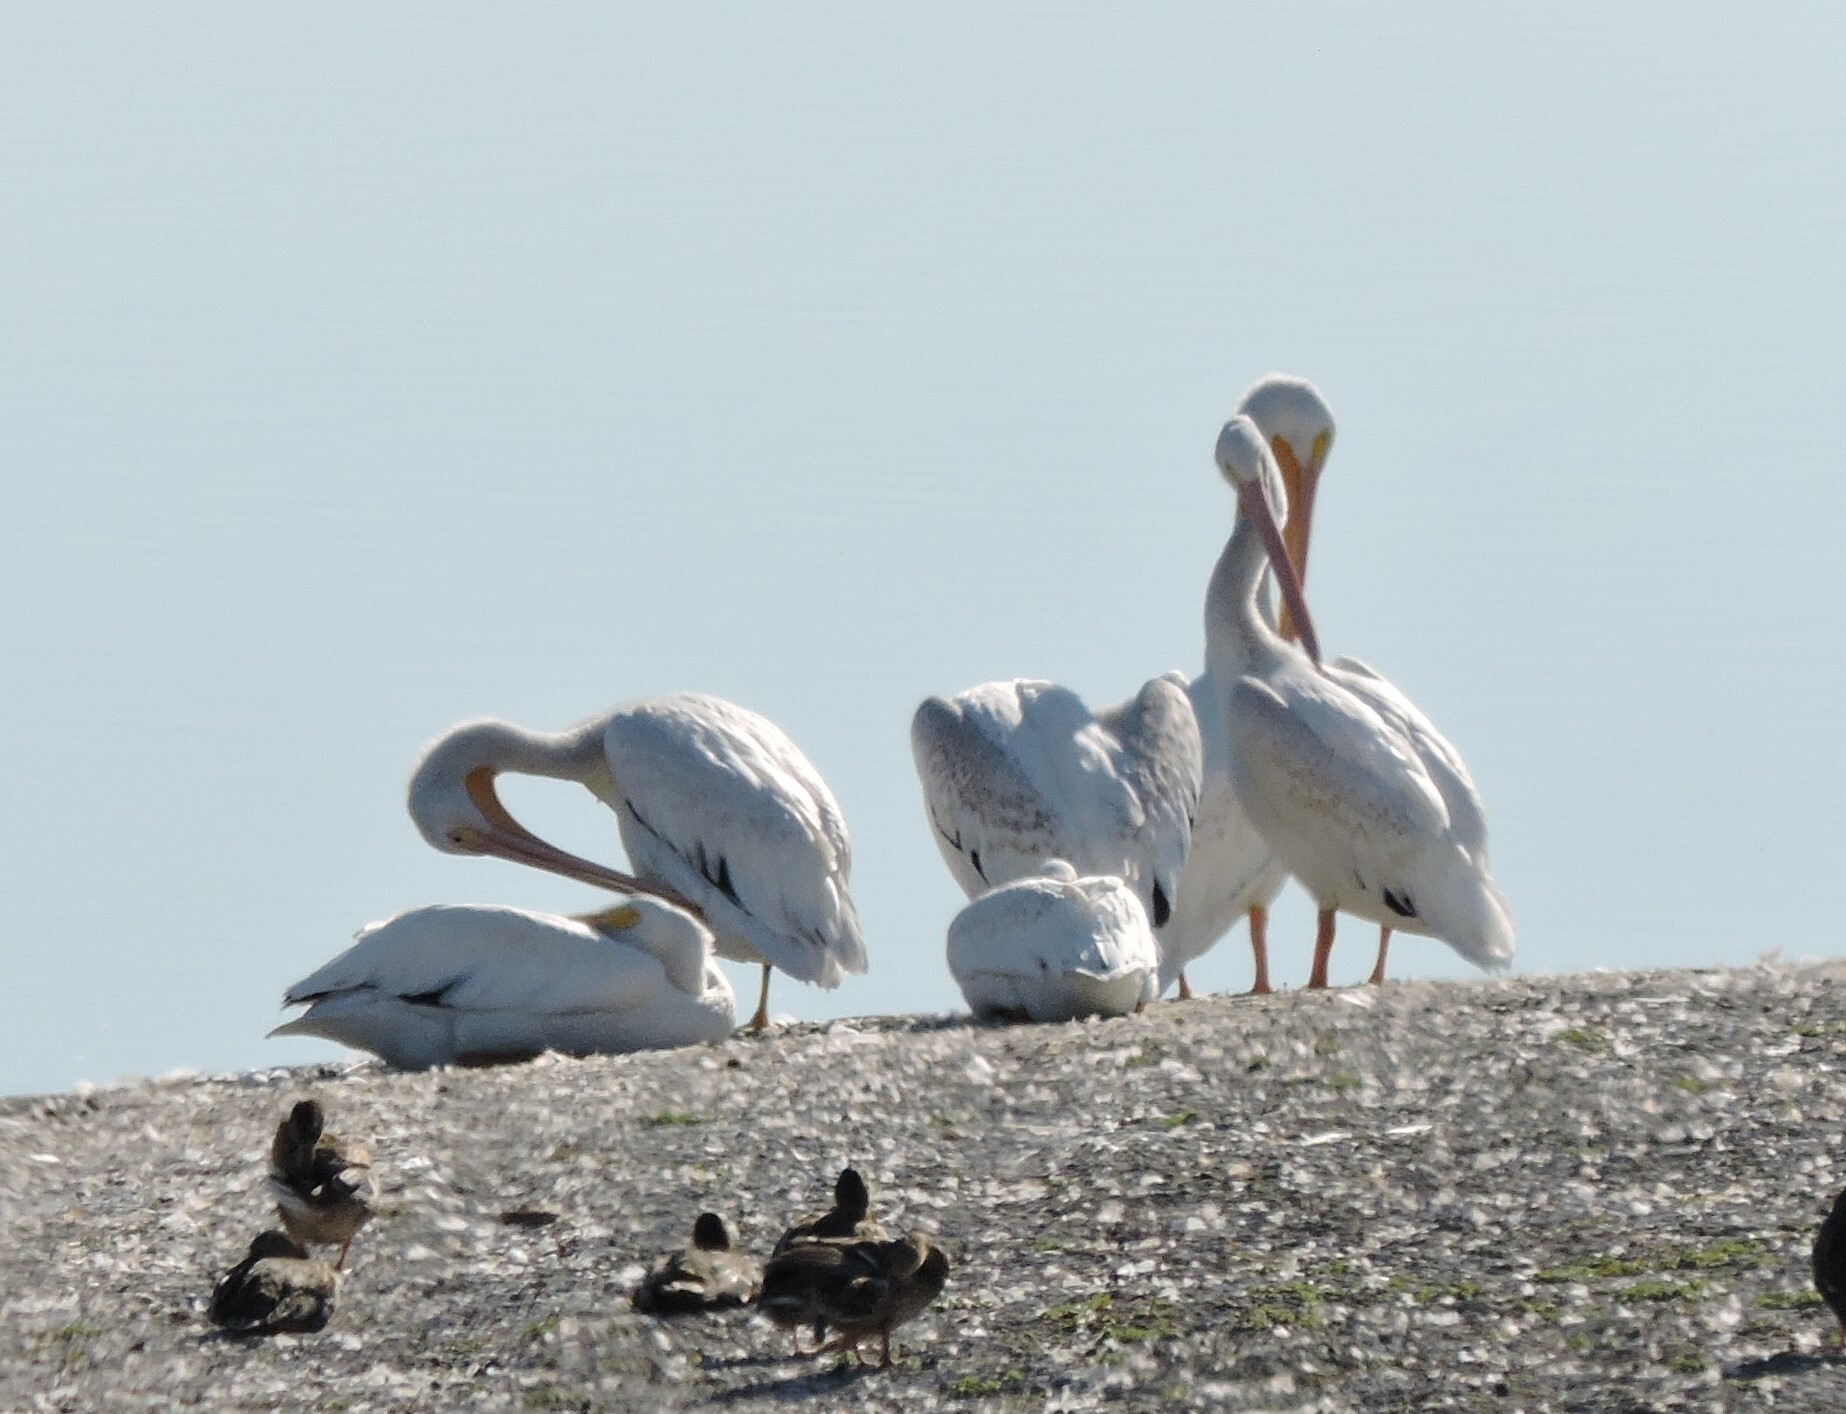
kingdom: Animalia
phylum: Chordata
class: Aves
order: Pelecaniformes
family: Pelecanidae
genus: Pelecanus
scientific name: Pelecanus erythrorhynchos
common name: American white pelican
